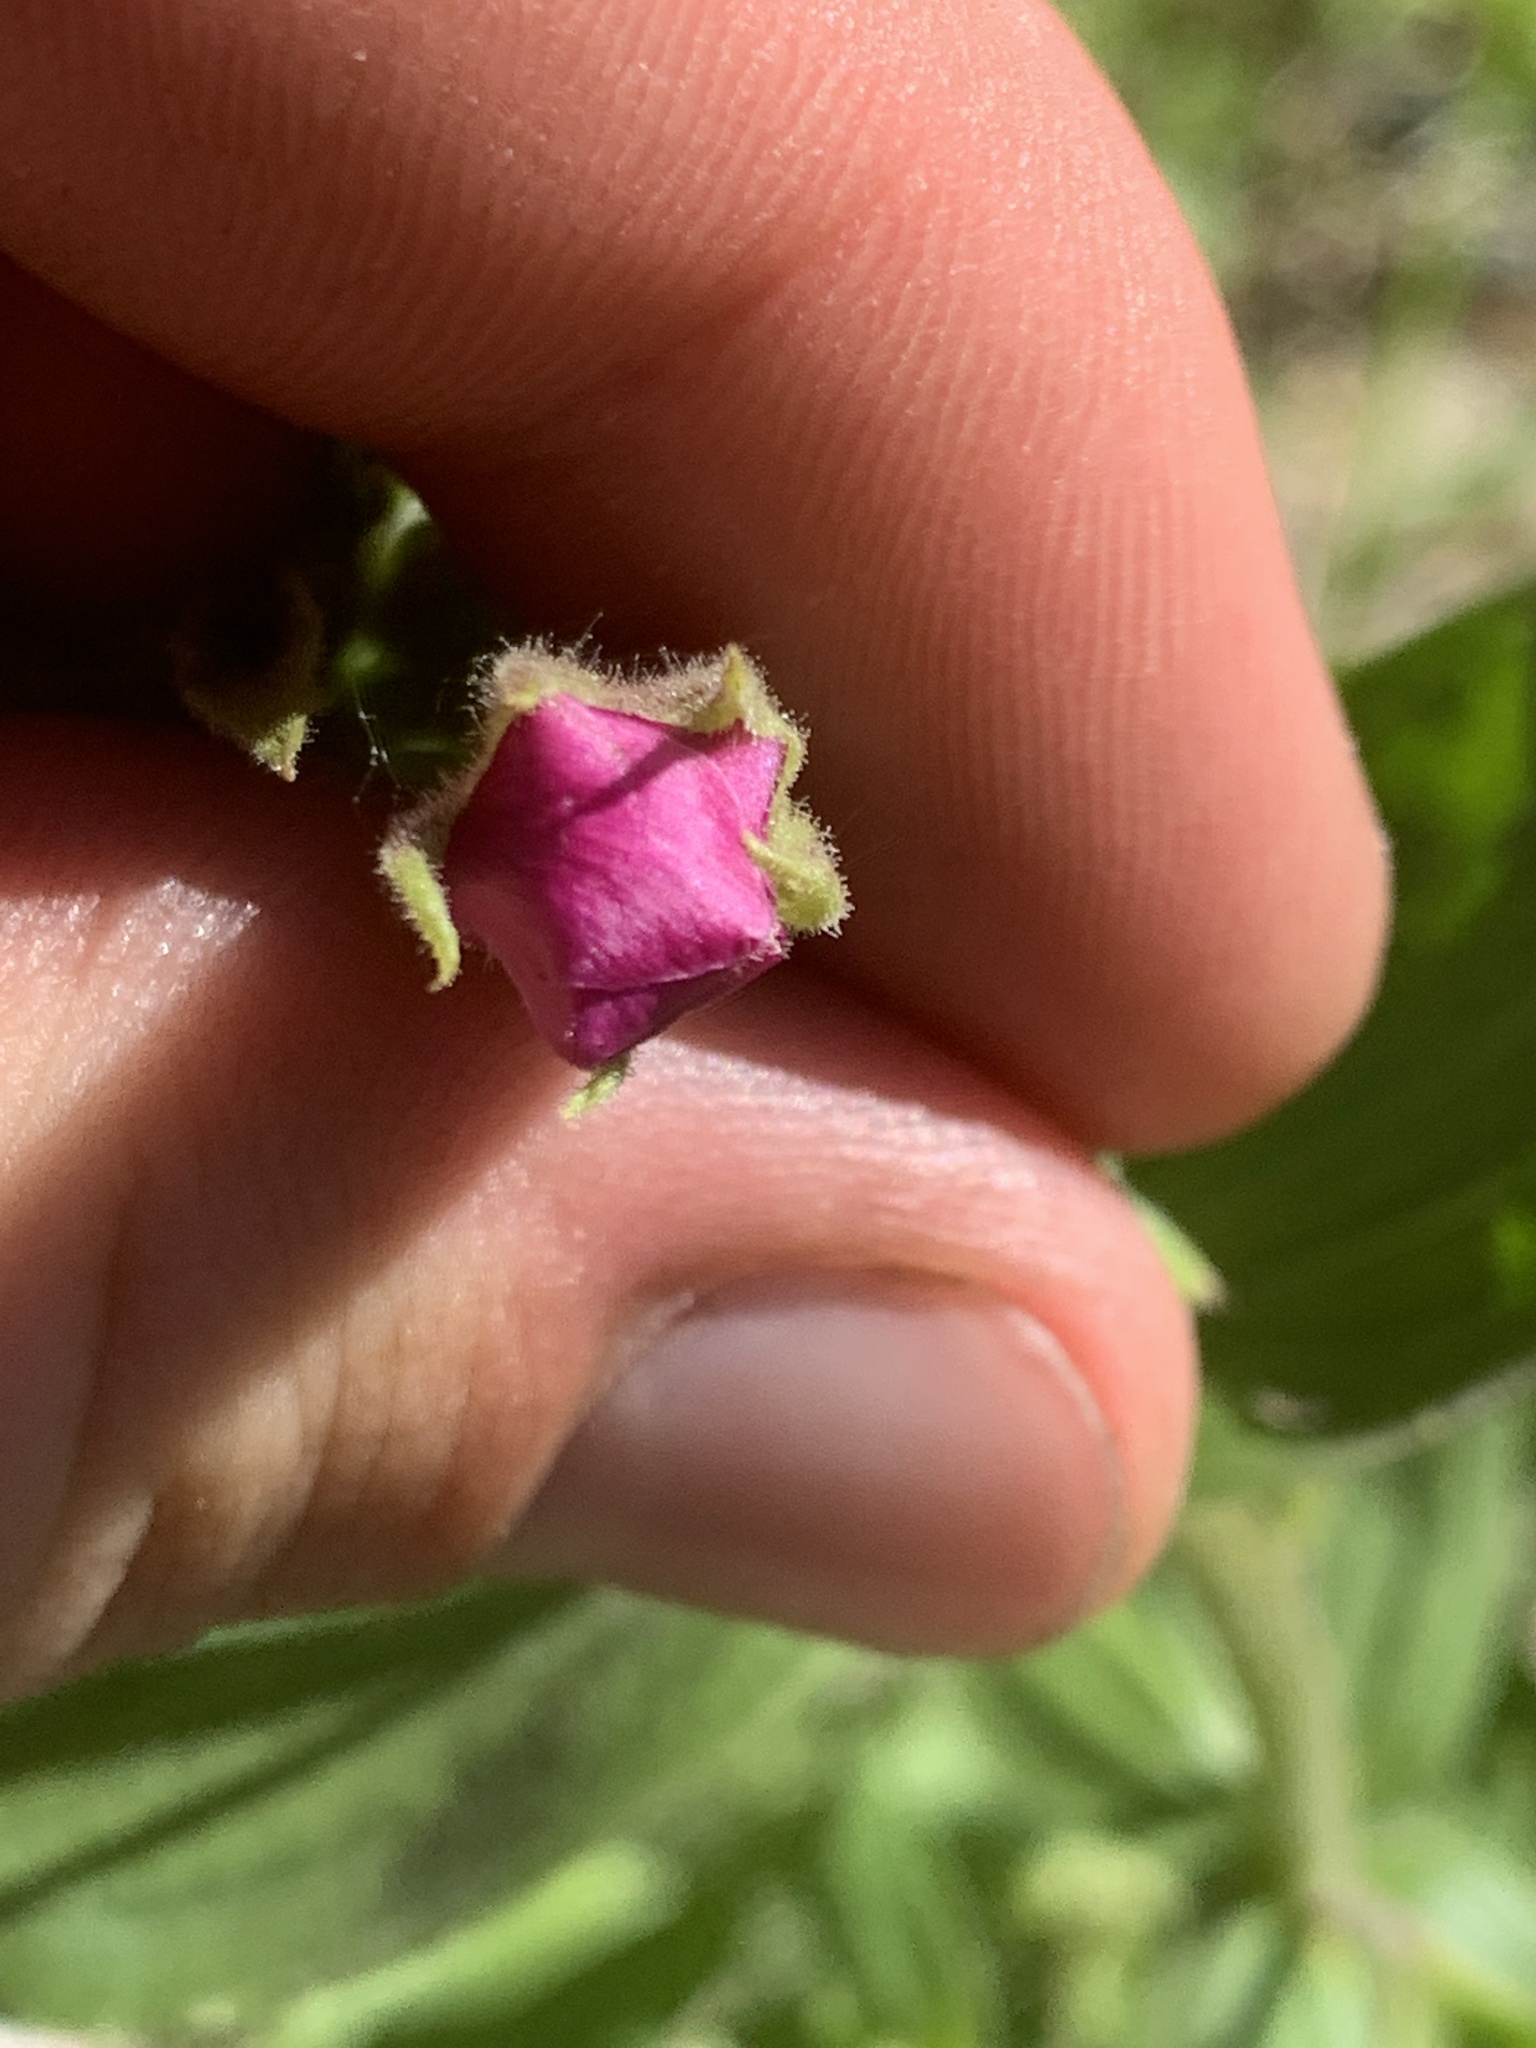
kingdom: Plantae
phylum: Tracheophyta
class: Magnoliopsida
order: Lamiales
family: Phrymaceae
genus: Erythranthe
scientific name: Erythranthe lewisii
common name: Lewis's monkey-flower
